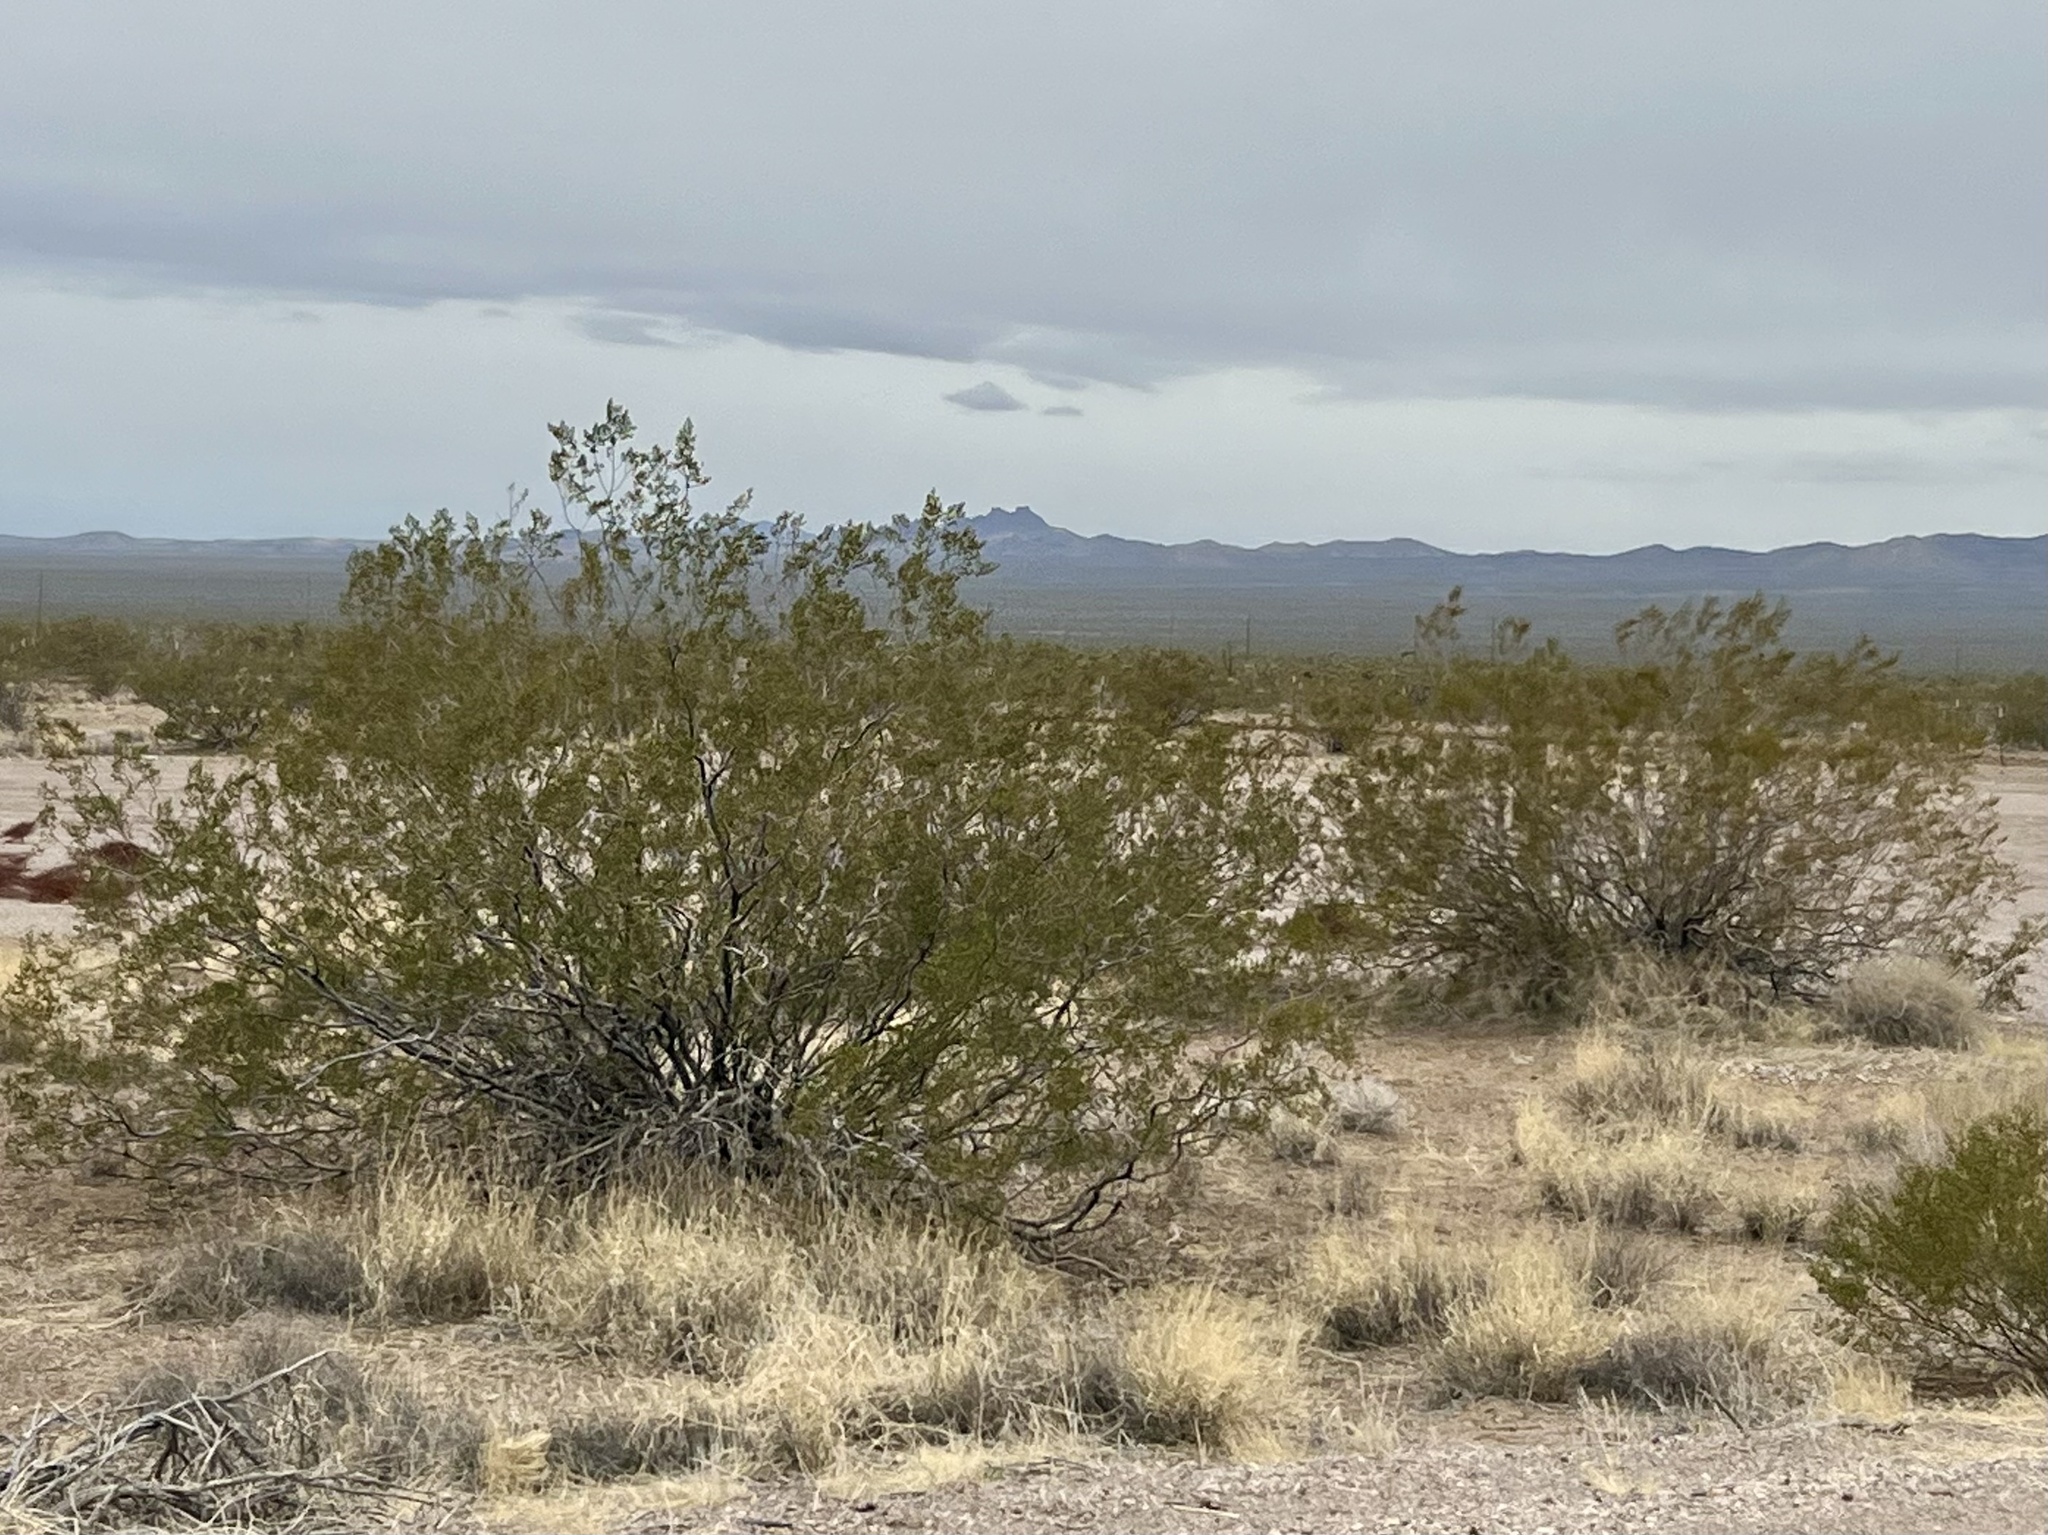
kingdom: Plantae
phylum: Tracheophyta
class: Magnoliopsida
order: Zygophyllales
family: Zygophyllaceae
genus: Larrea
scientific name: Larrea tridentata
